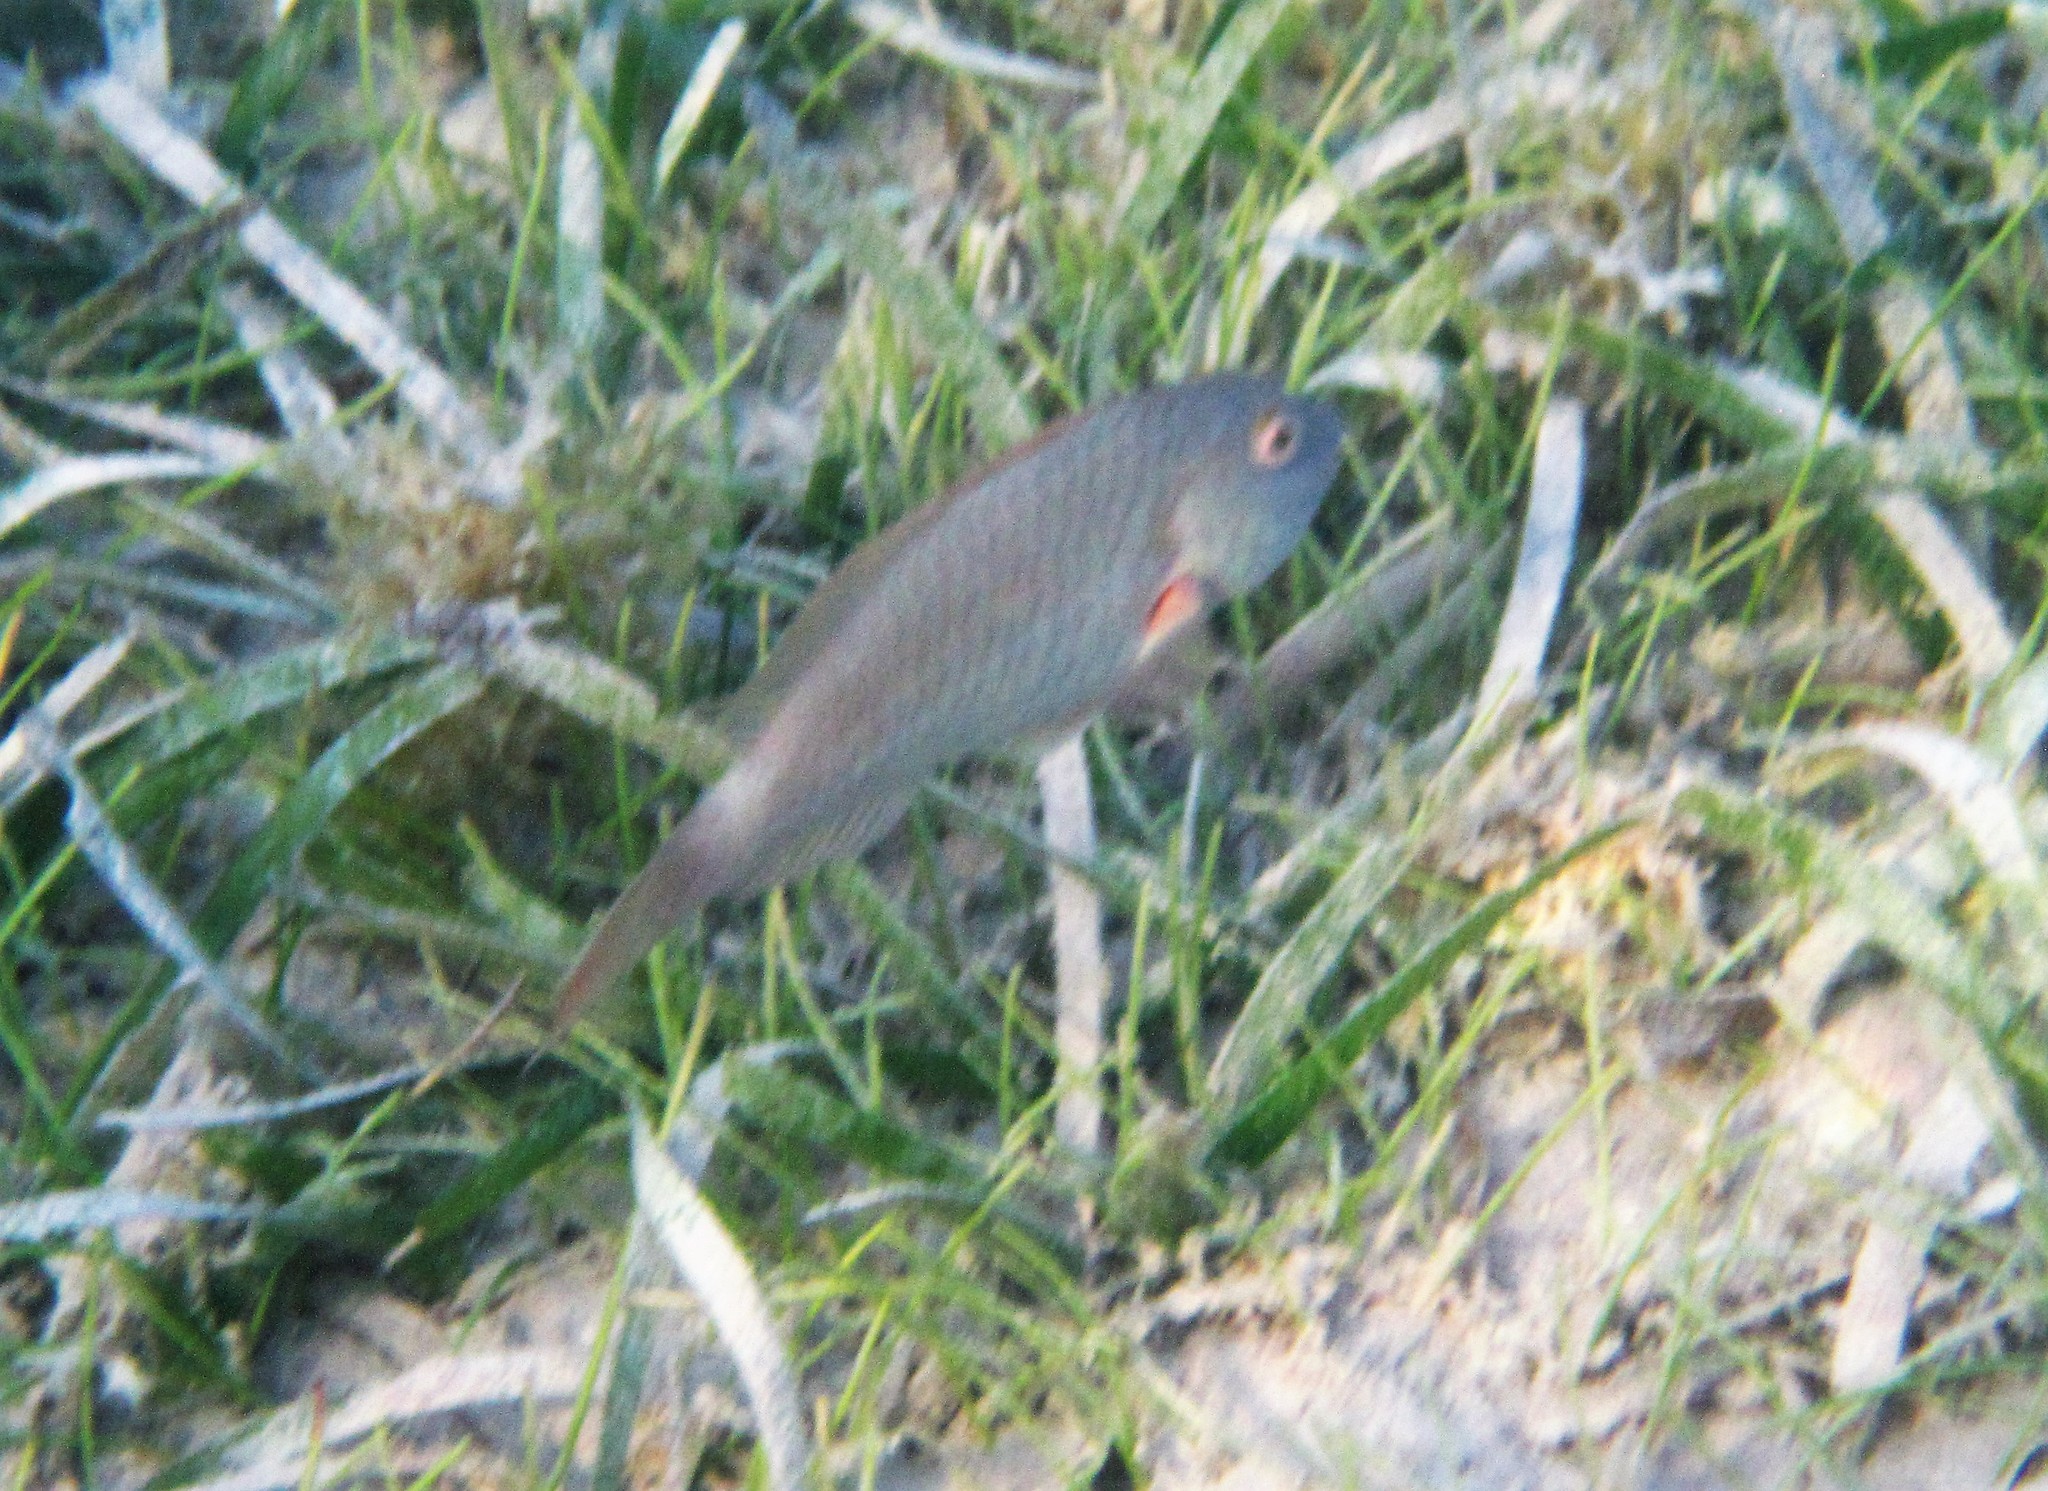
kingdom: Animalia
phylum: Chordata
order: Perciformes
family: Scaridae
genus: Sparisoma
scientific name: Sparisoma chrysopterum
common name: Redtail parrotfish
